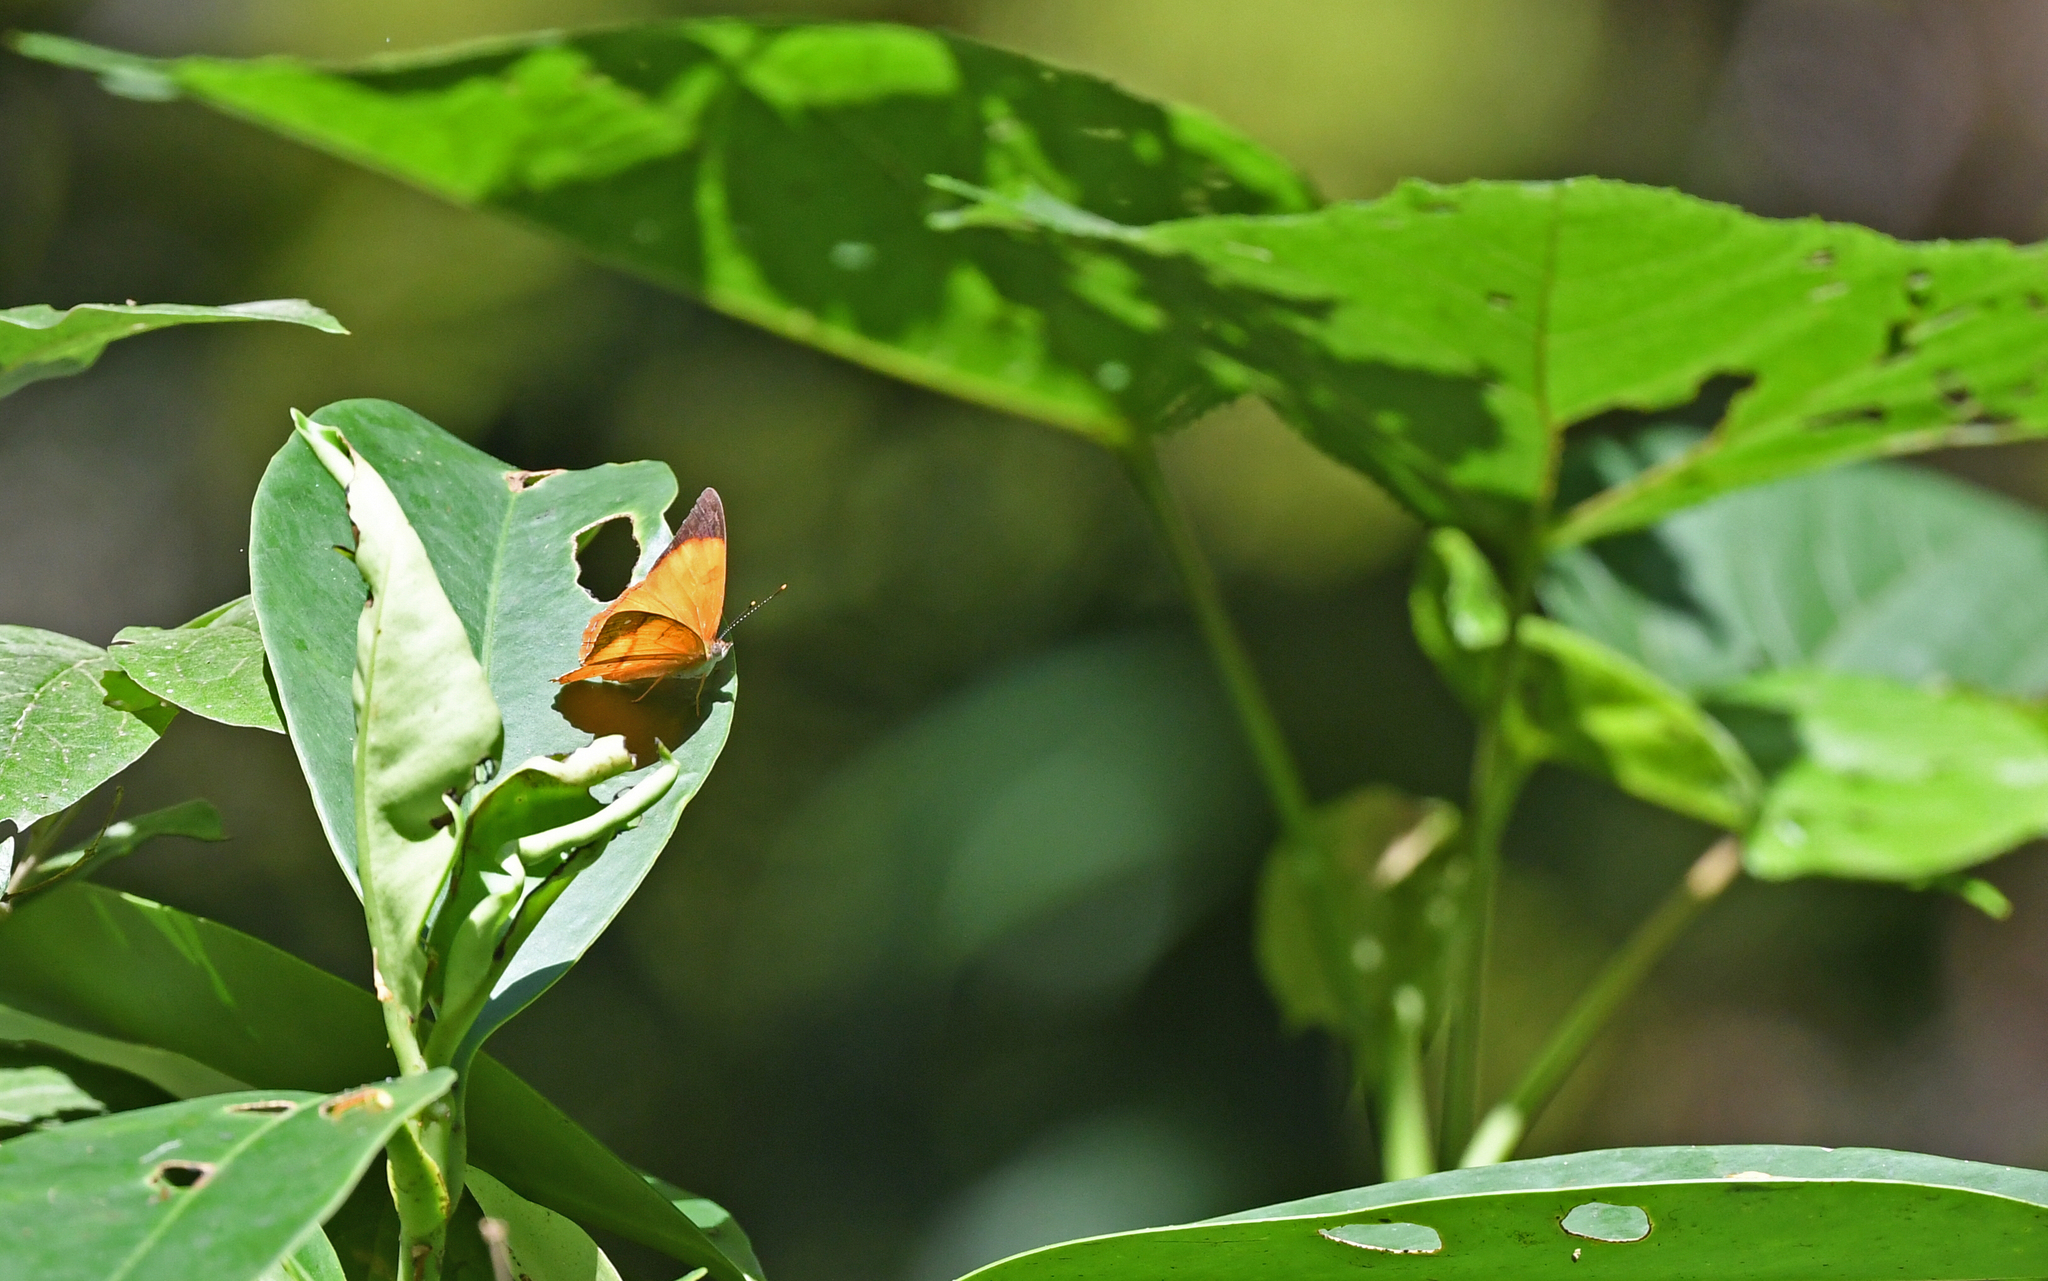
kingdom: Animalia
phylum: Arthropoda
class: Insecta
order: Lepidoptera
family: Nymphalidae
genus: Nica
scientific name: Nica flavilla
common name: Mandarin nica
